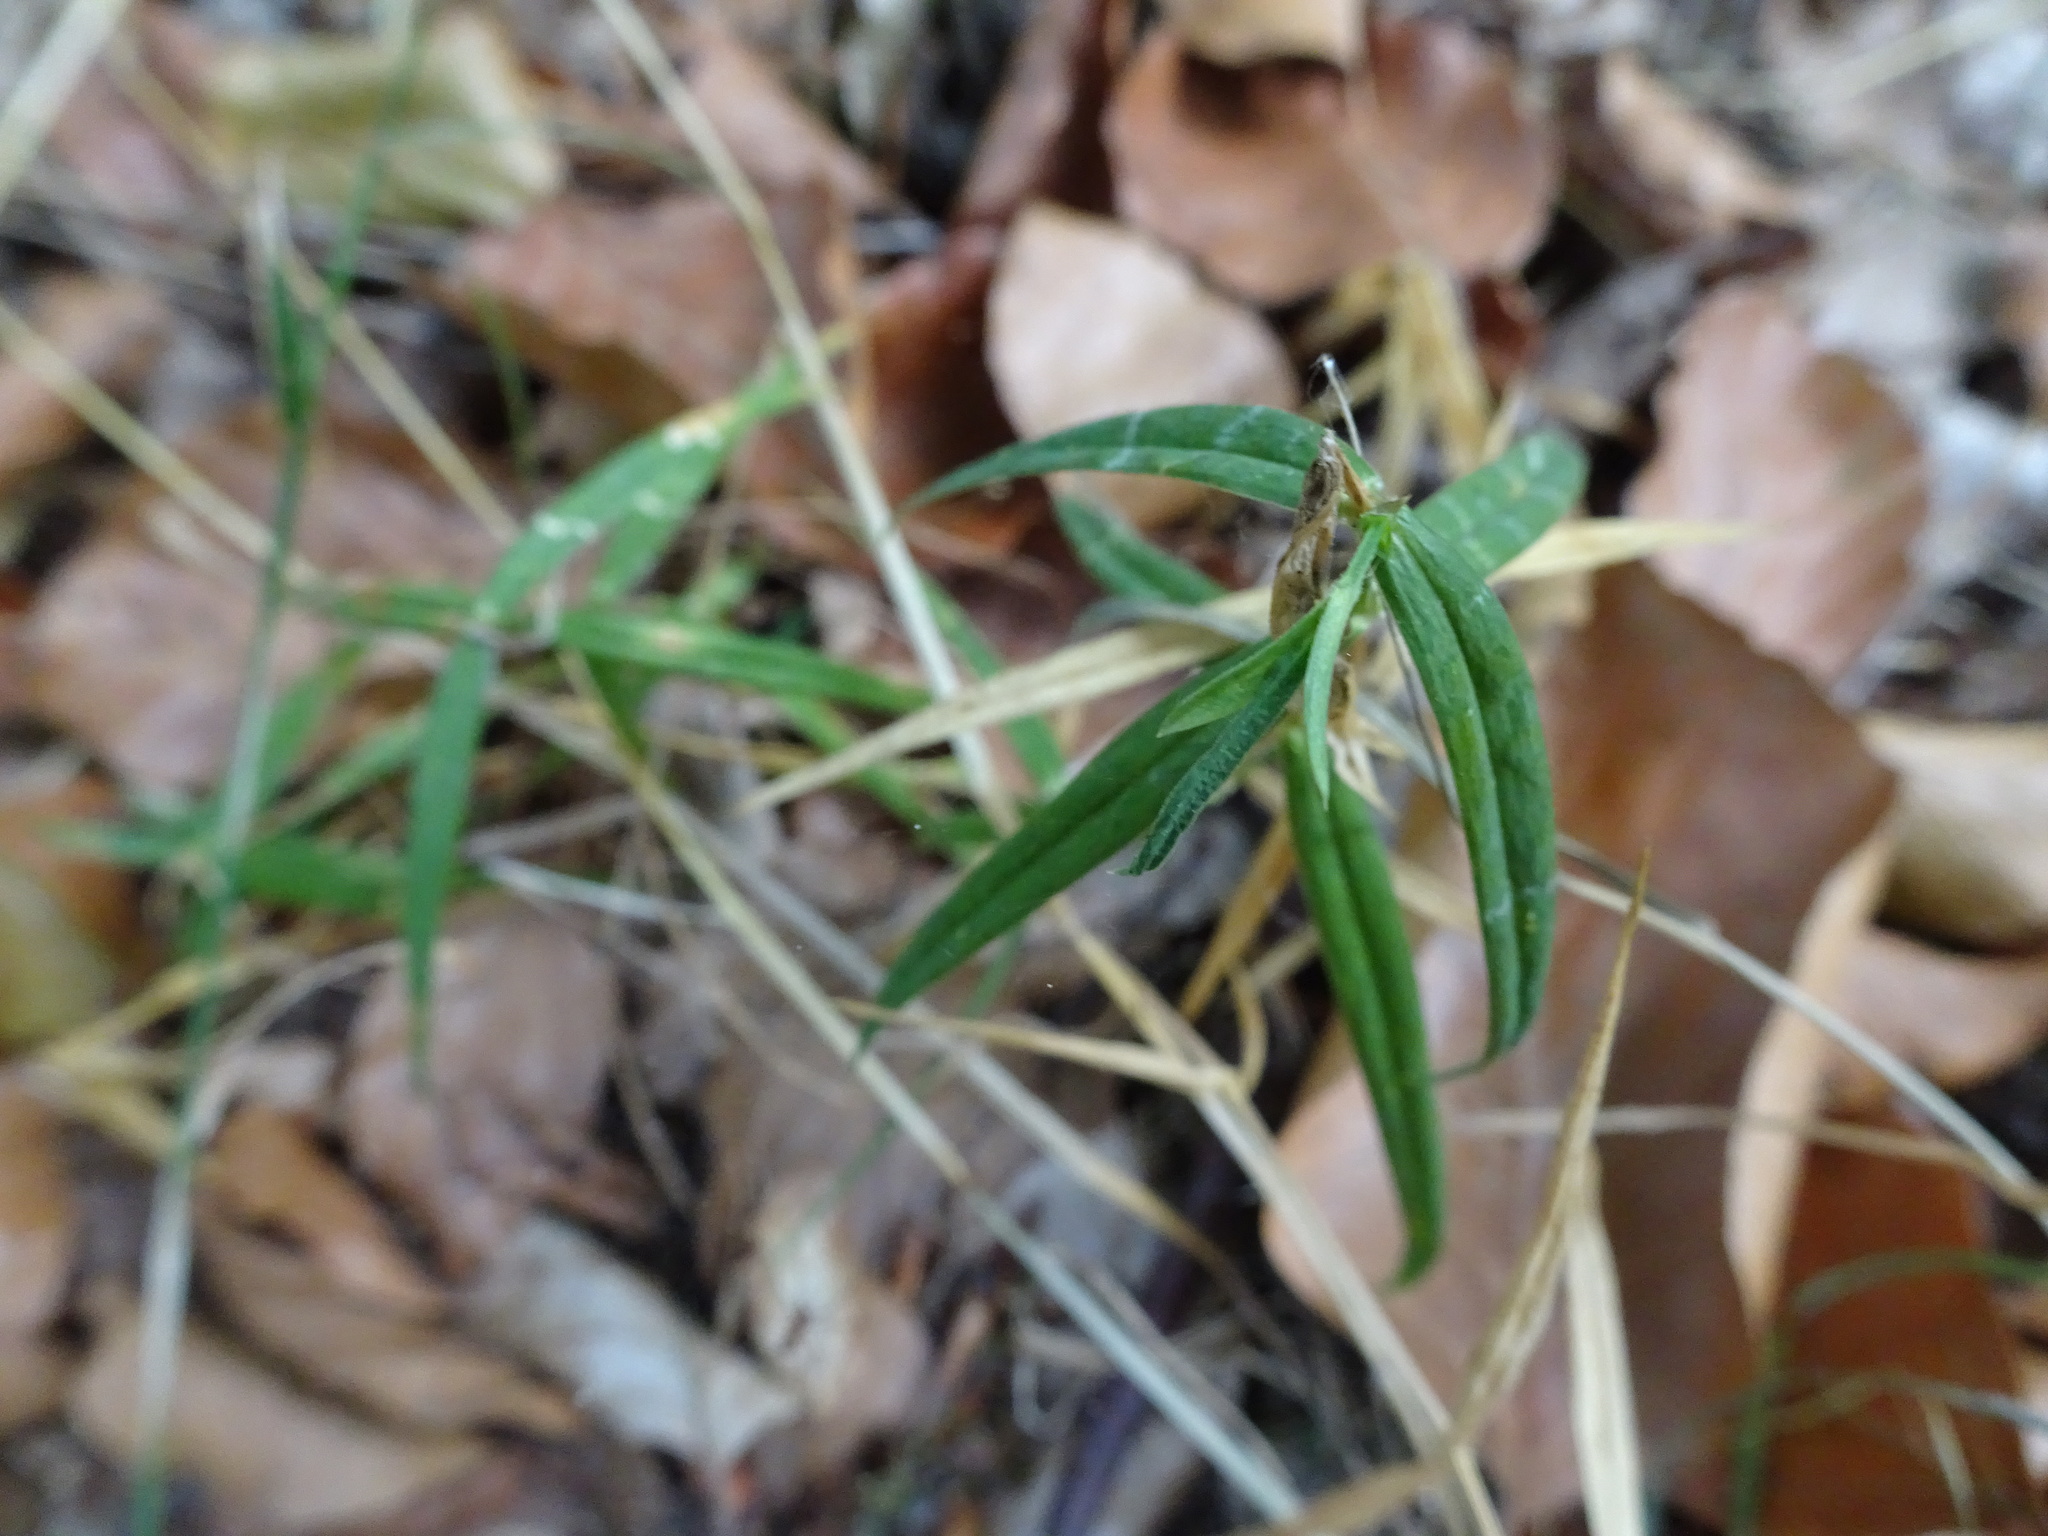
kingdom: Plantae
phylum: Tracheophyta
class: Magnoliopsida
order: Caryophyllales
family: Caryophyllaceae
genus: Rabelera
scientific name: Rabelera holostea
